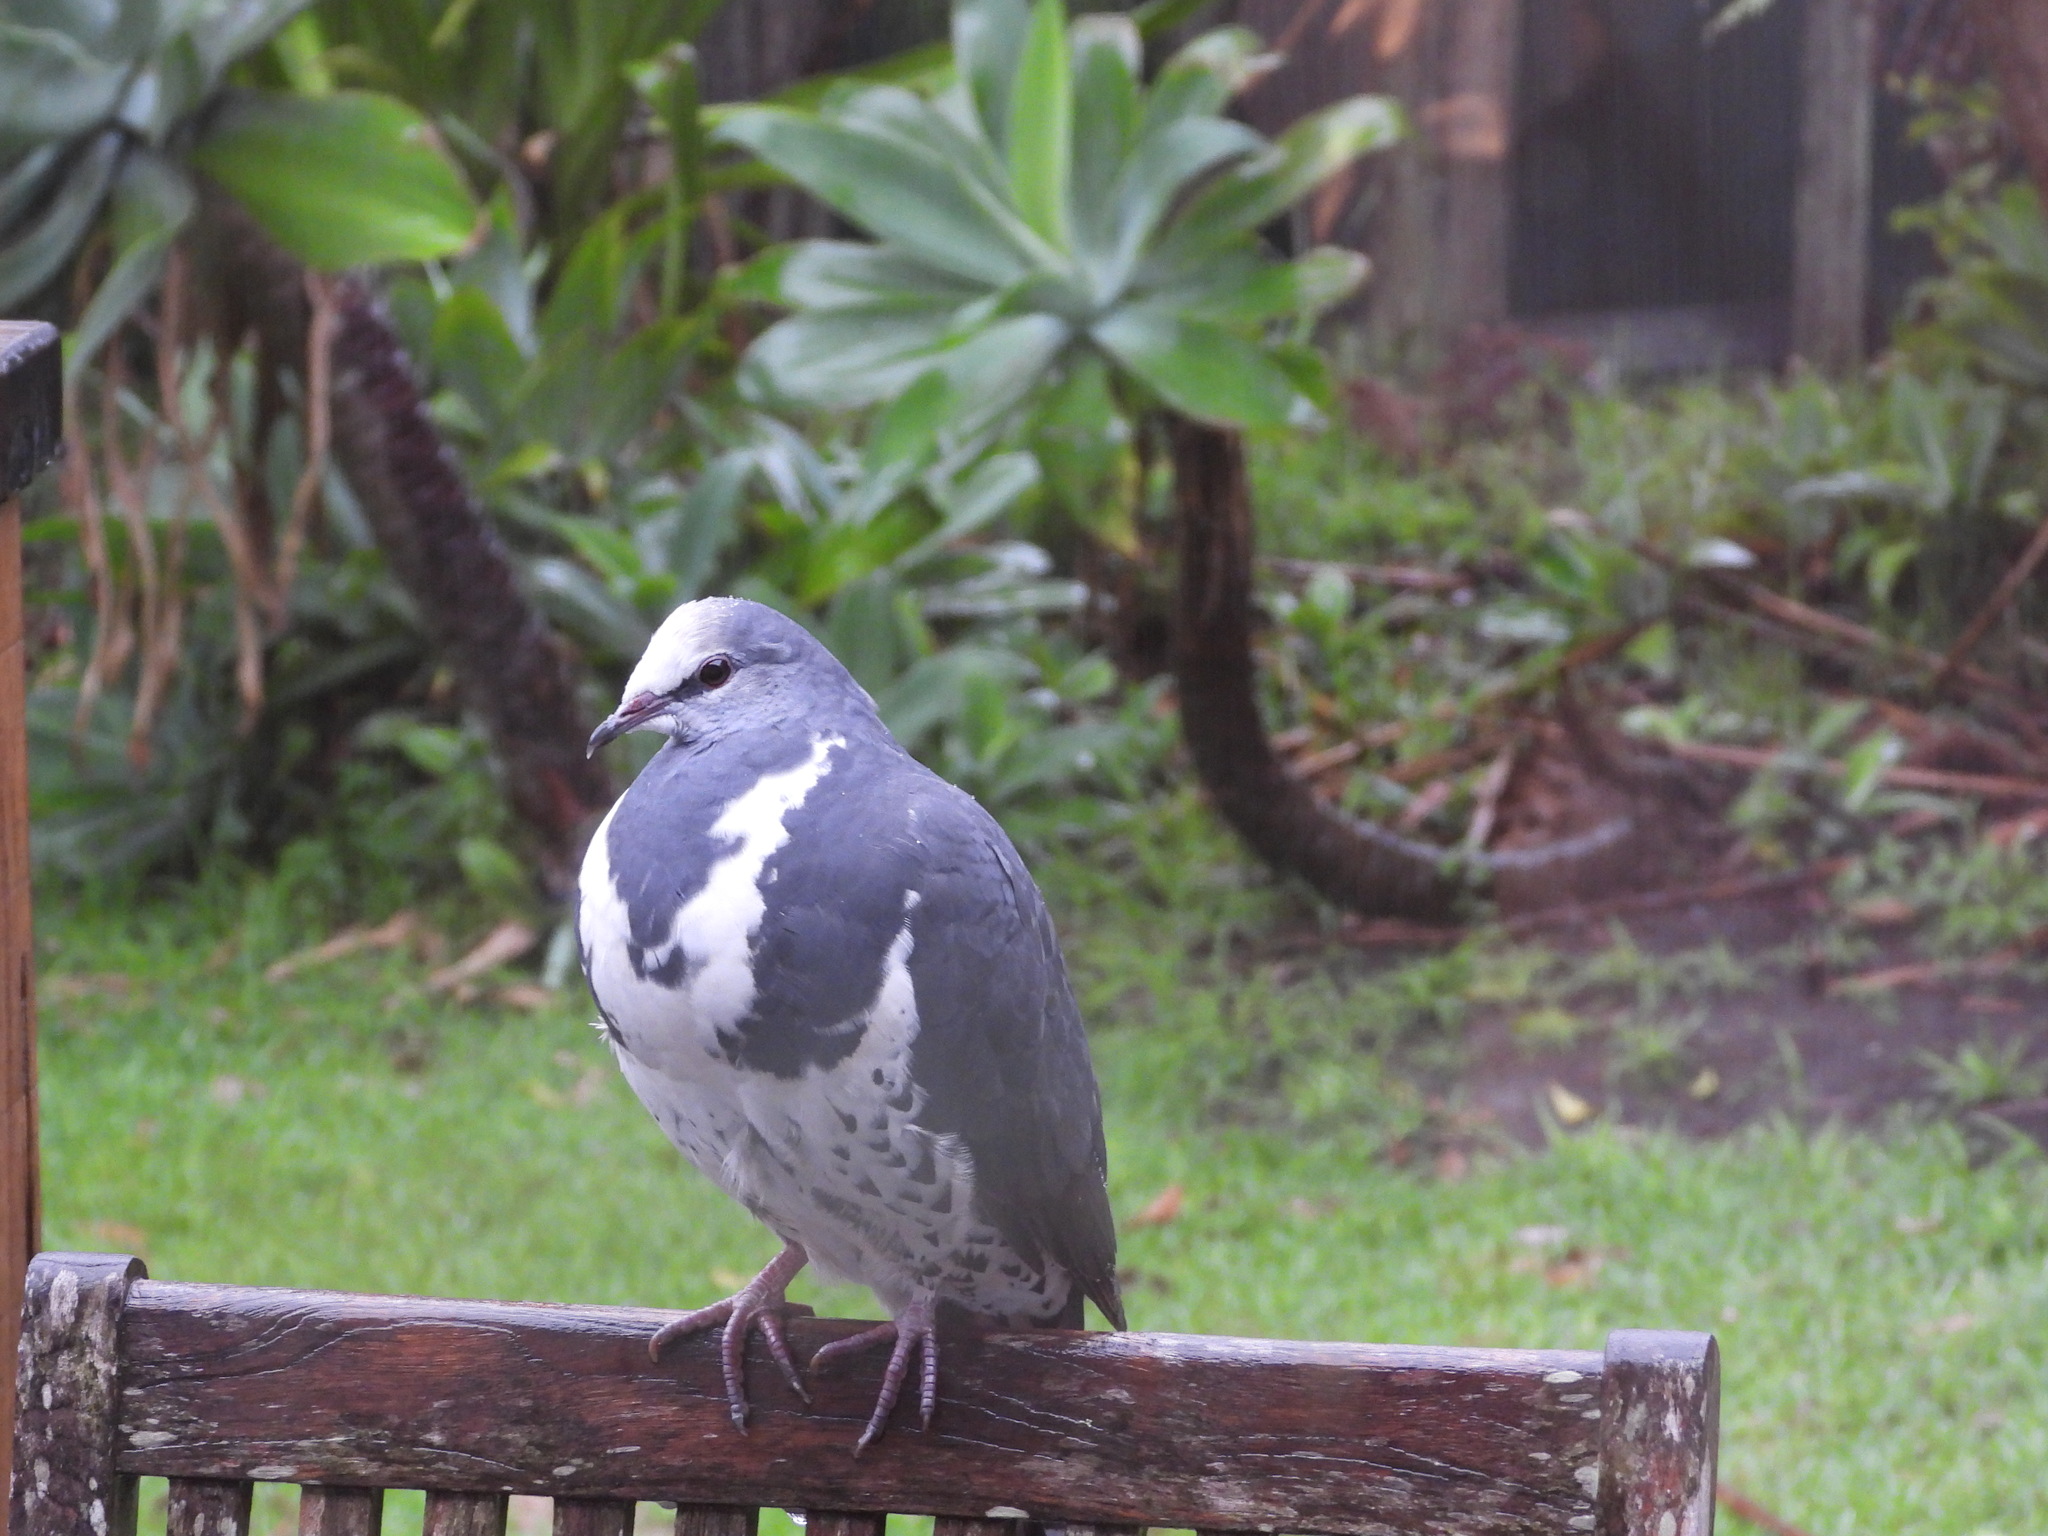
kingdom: Animalia
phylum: Chordata
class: Aves
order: Columbiformes
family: Columbidae
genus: Leucosarcia
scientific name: Leucosarcia melanoleuca
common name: Wonga pigeon
